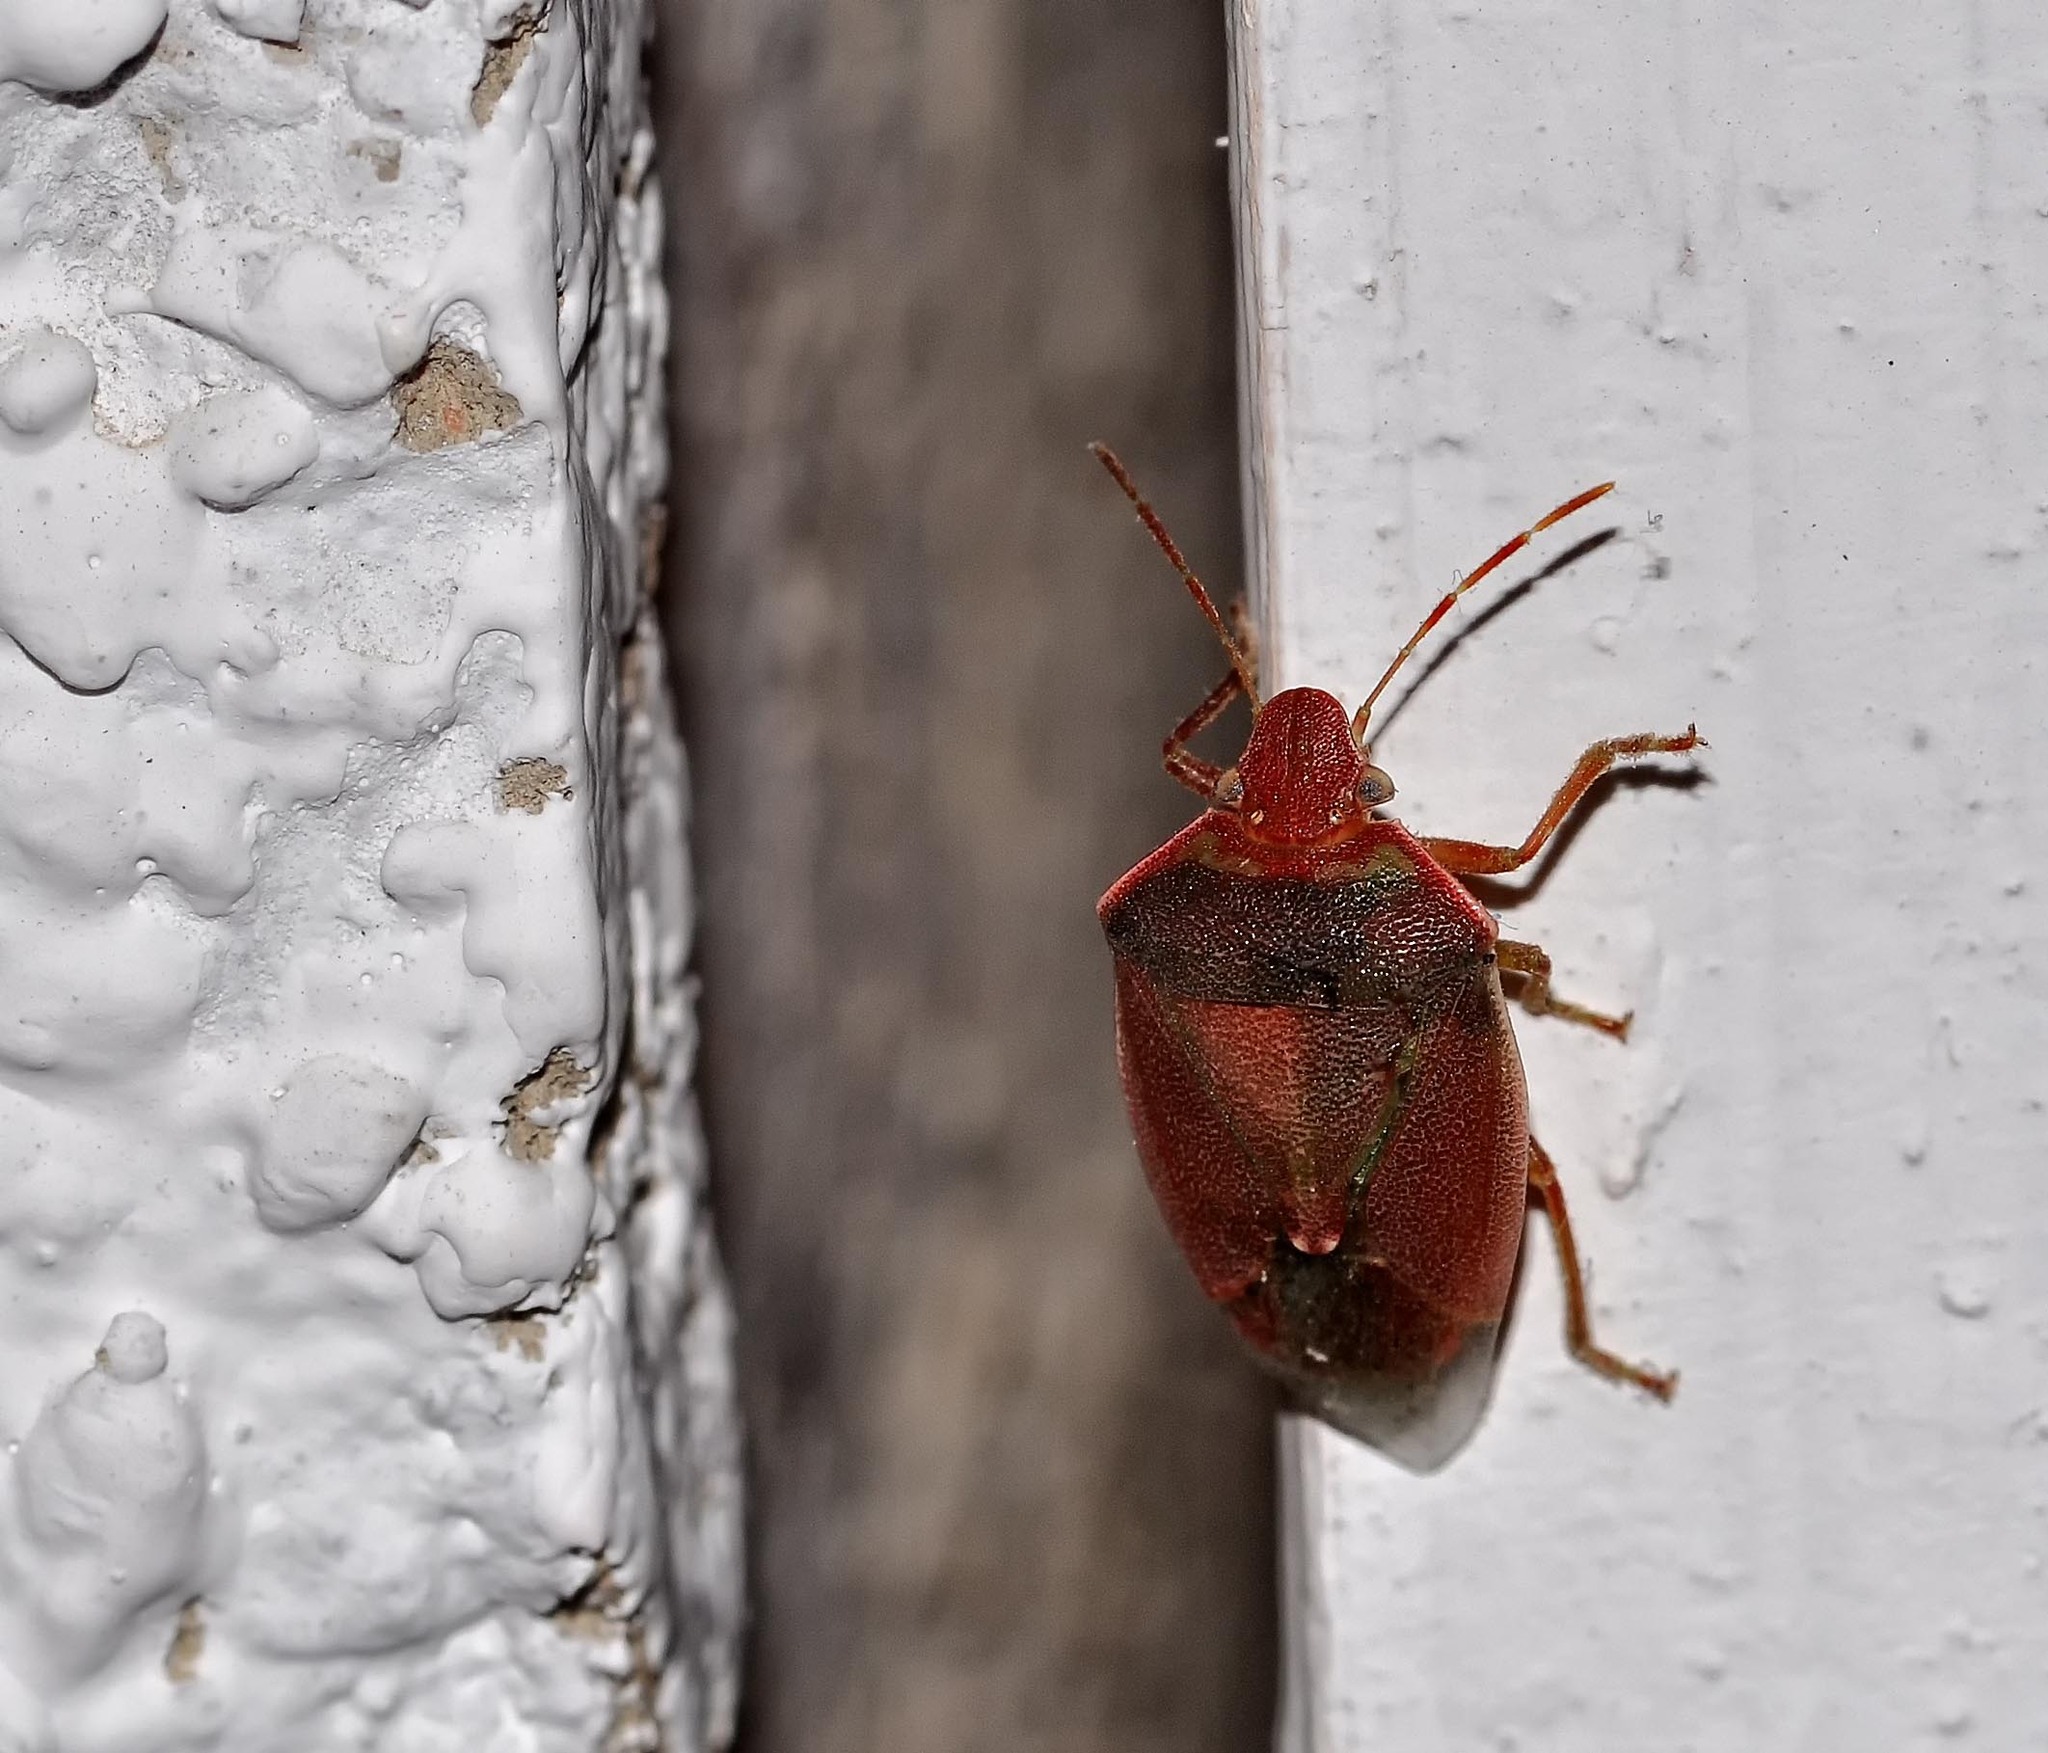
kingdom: Animalia
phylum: Arthropoda
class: Insecta
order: Hemiptera
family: Pentatomidae
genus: Acrosternum
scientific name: Acrosternum heegeri
